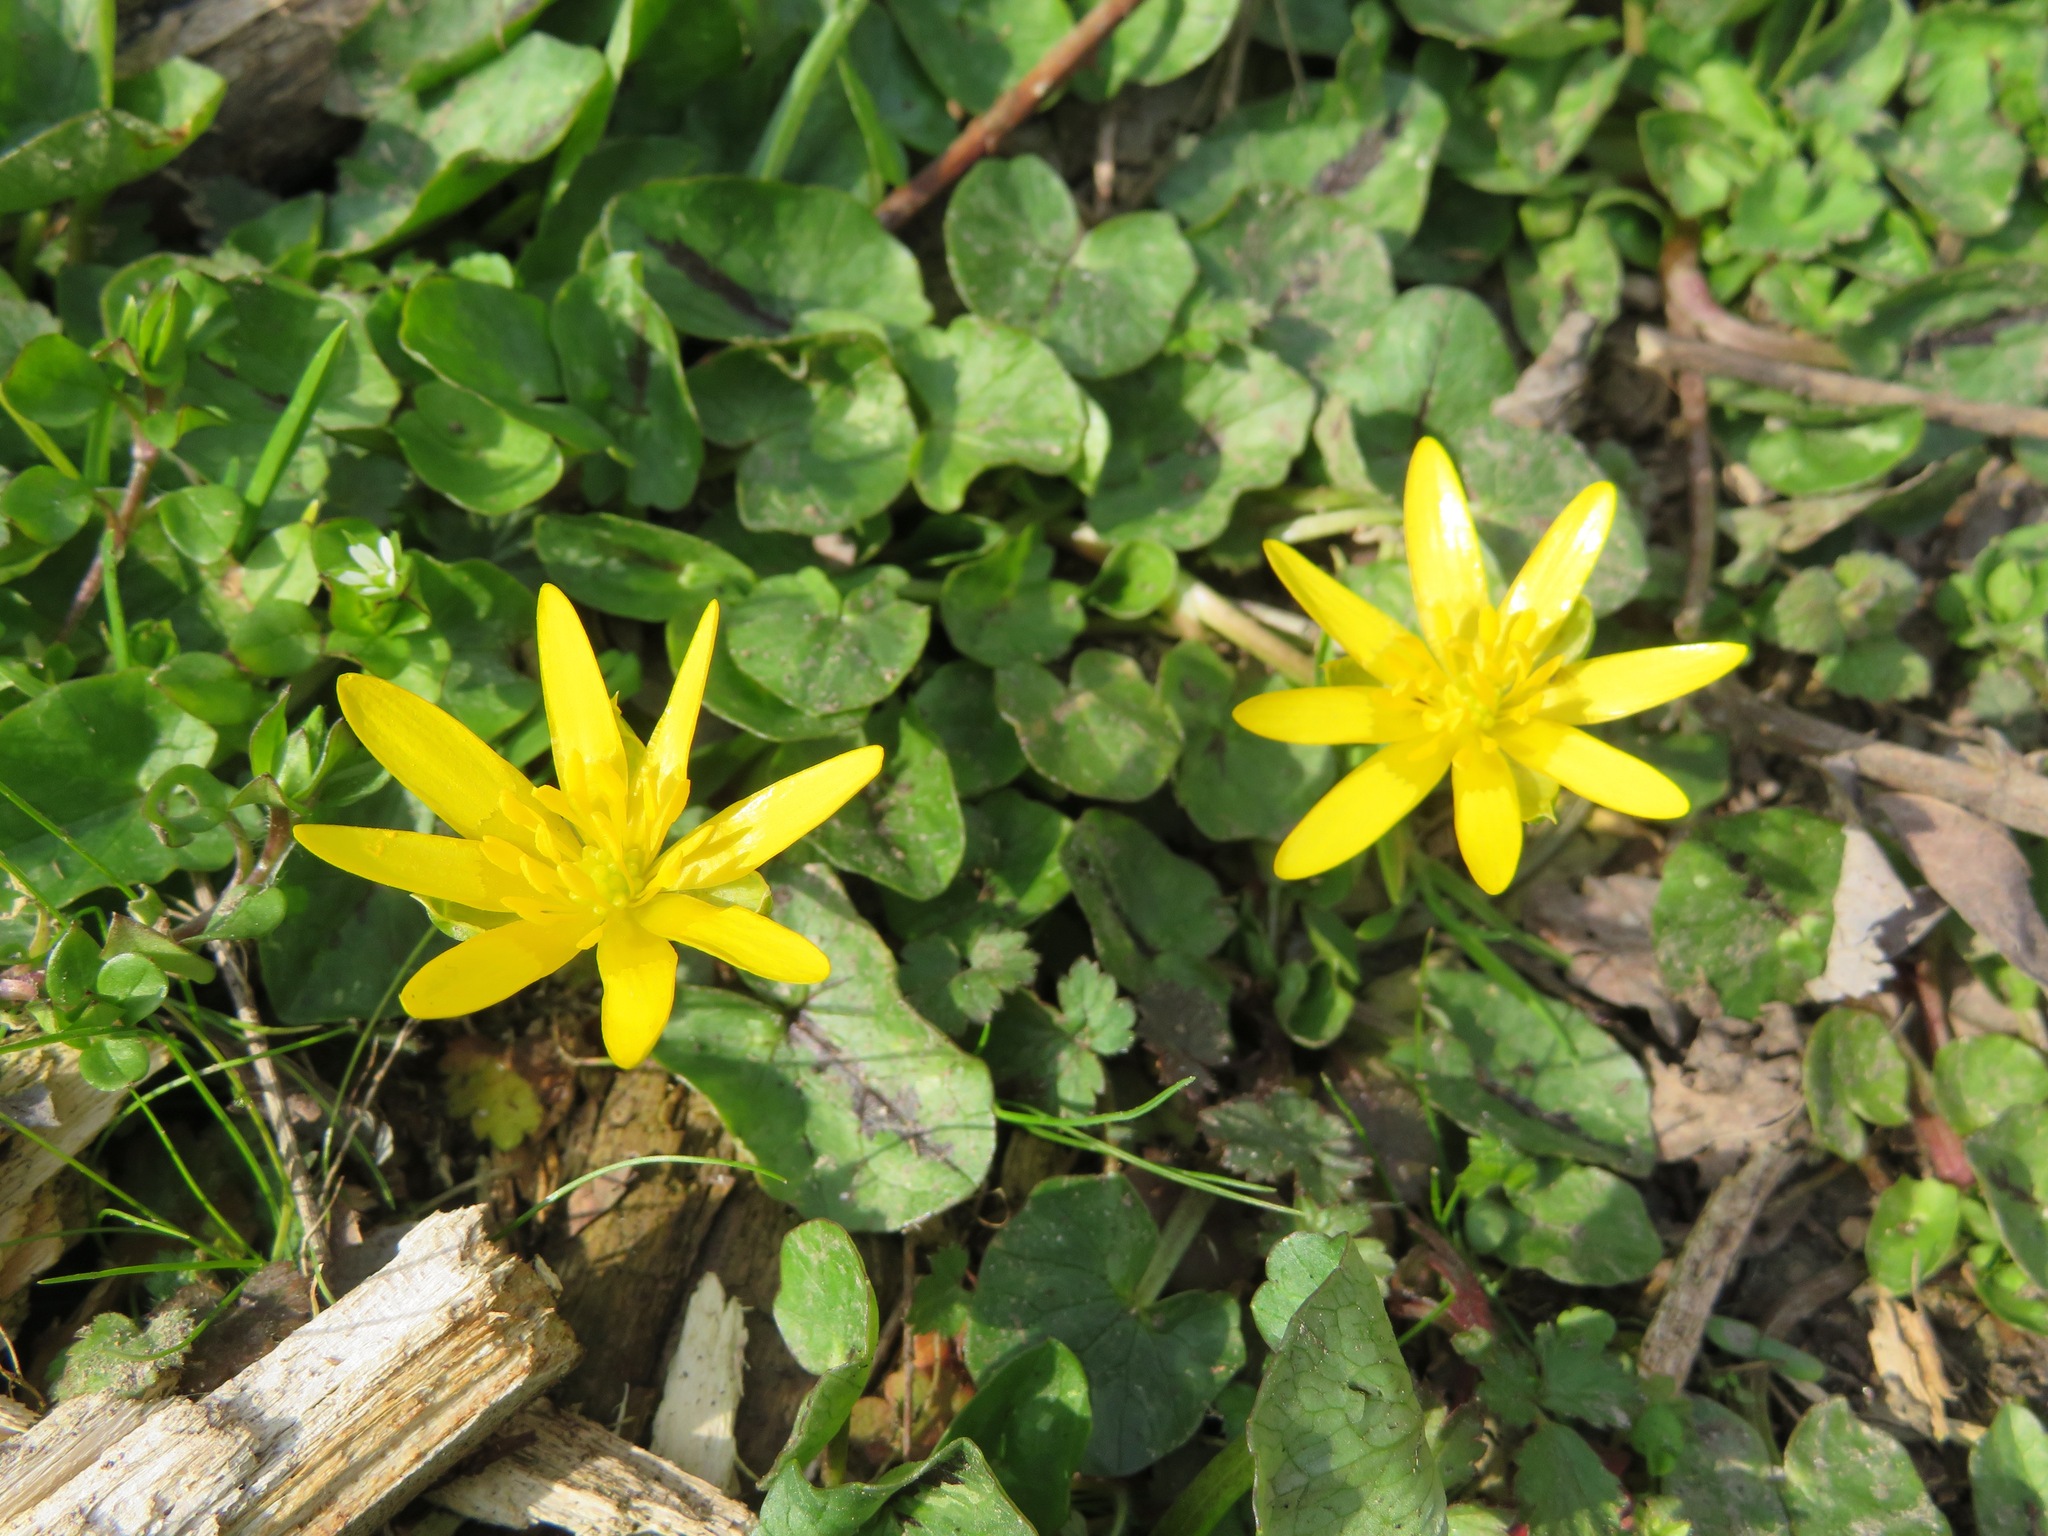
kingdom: Plantae
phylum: Tracheophyta
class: Magnoliopsida
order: Ranunculales
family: Ranunculaceae
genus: Ficaria
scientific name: Ficaria verna
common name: Lesser celandine
